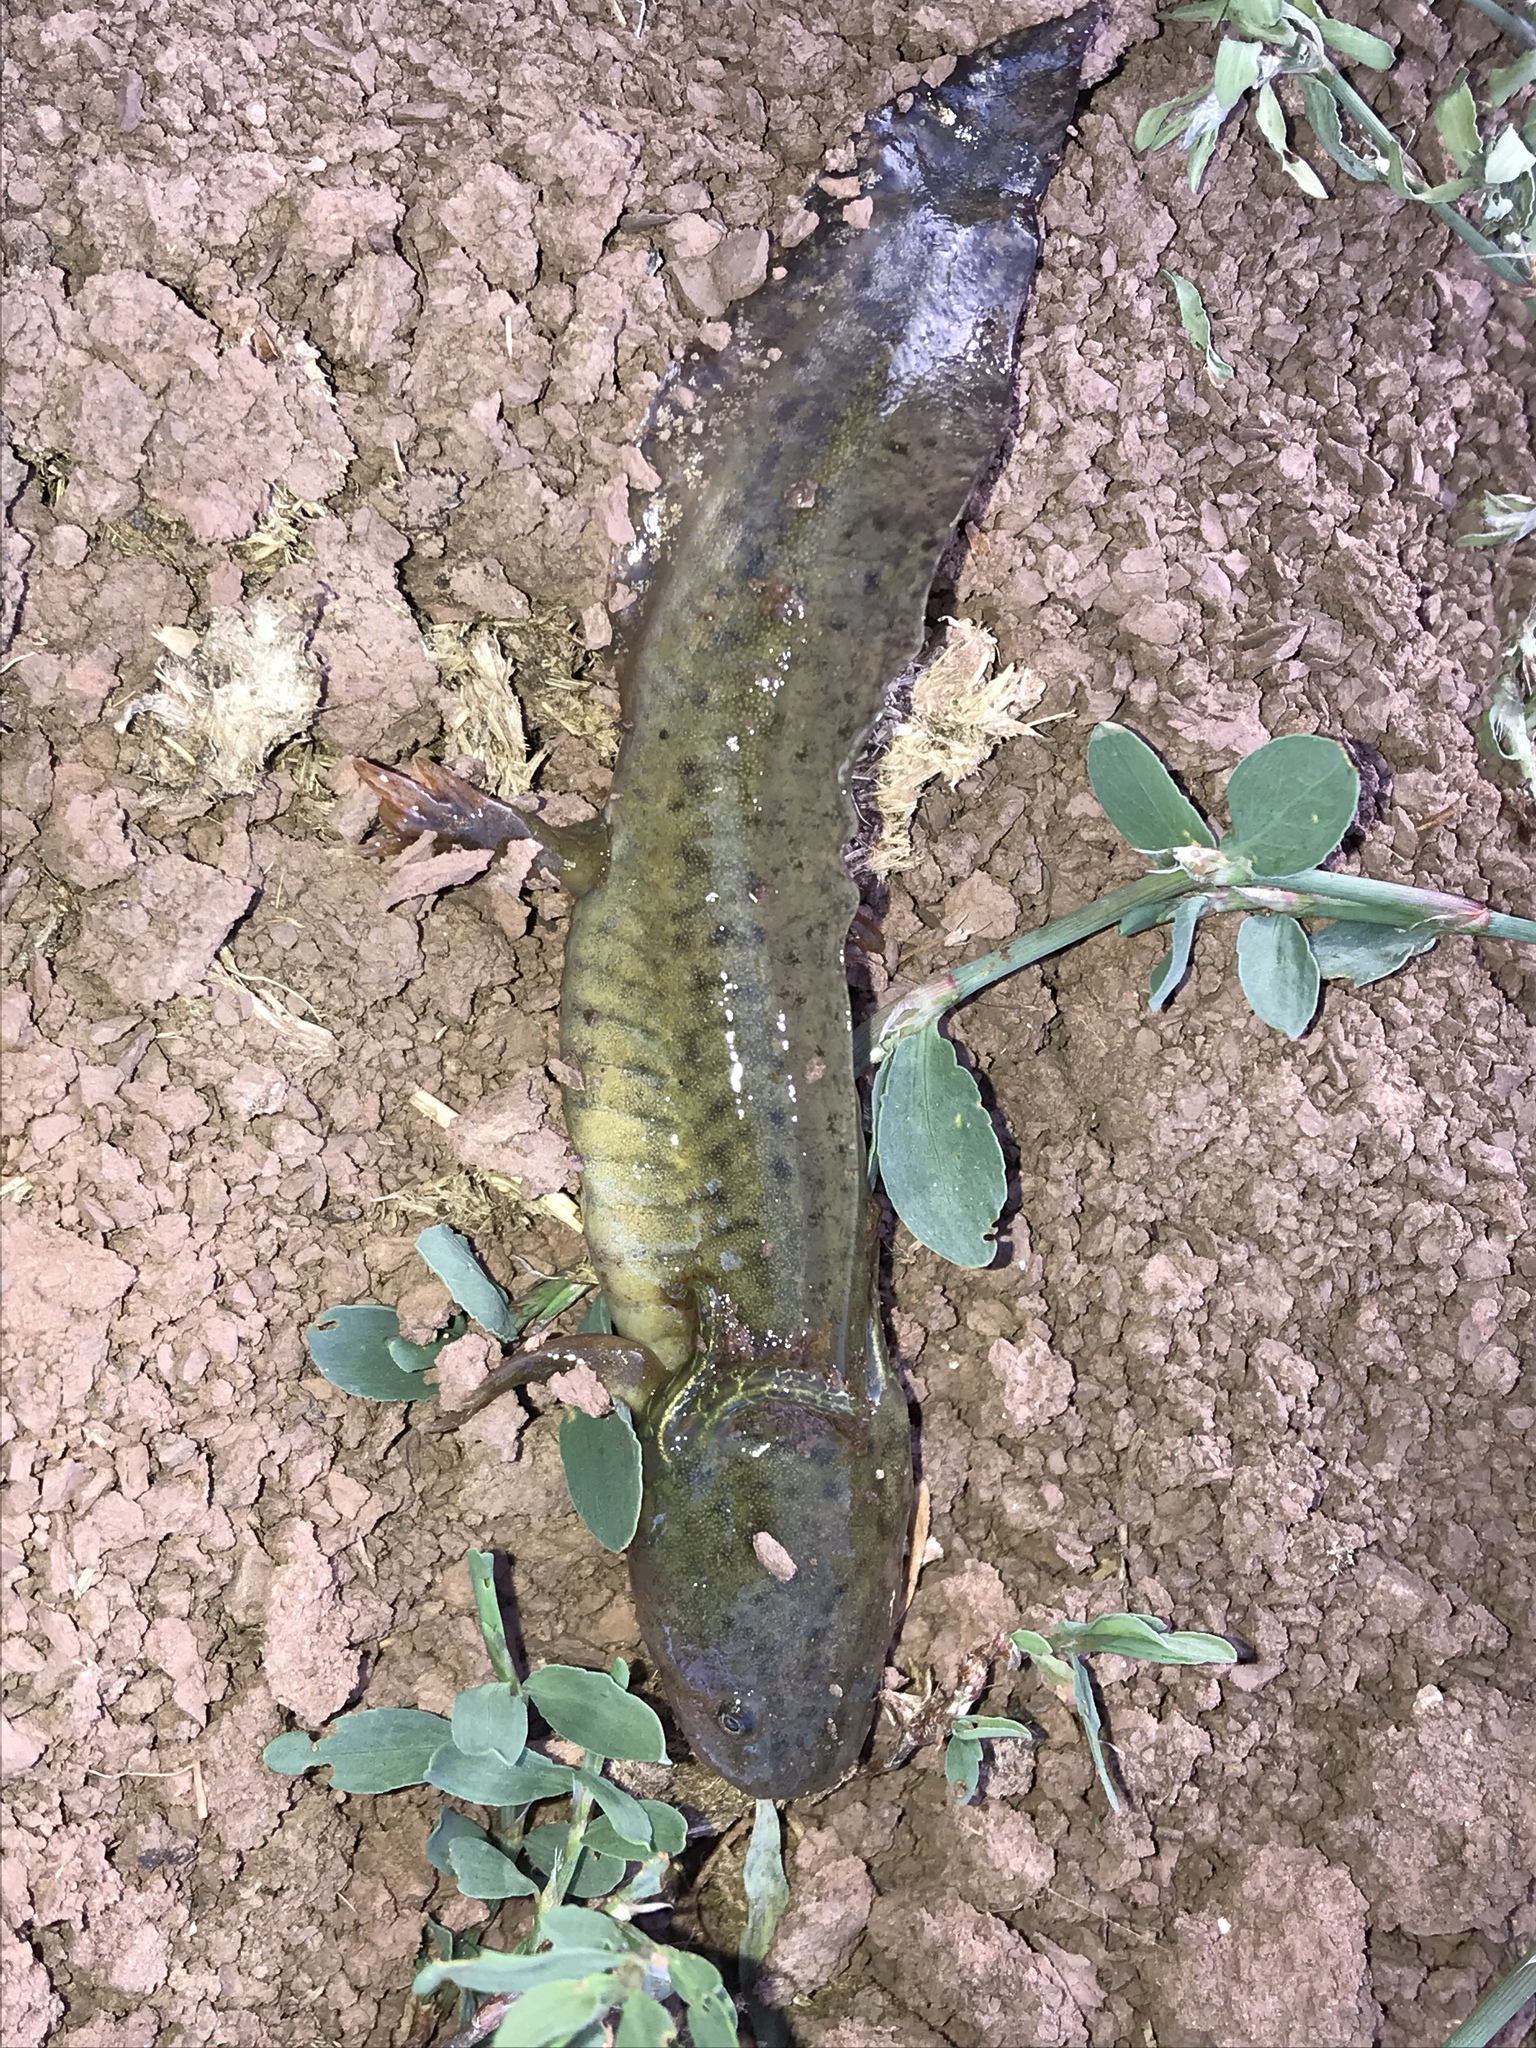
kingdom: Animalia
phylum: Chordata
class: Amphibia
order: Caudata
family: Ambystomatidae
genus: Ambystoma
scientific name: Ambystoma mavortium
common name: Western tiger salamander
